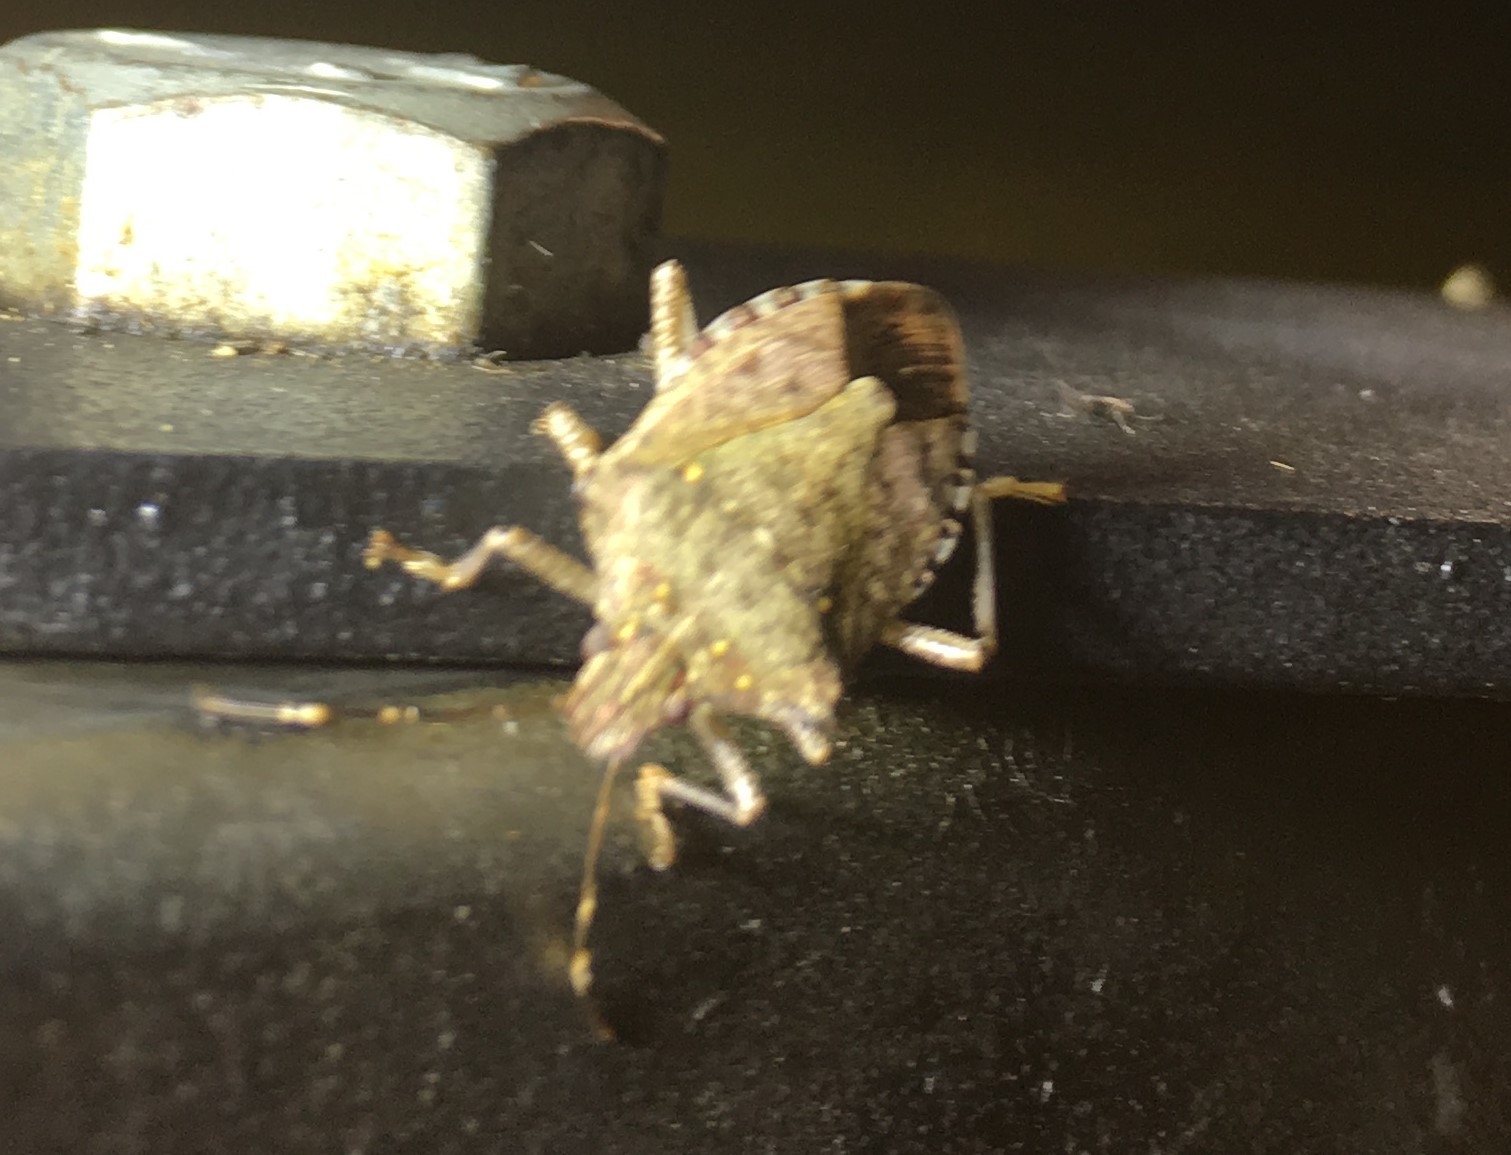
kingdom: Animalia
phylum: Arthropoda
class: Insecta
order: Hemiptera
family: Pentatomidae
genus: Halyomorpha
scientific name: Halyomorpha halys
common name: Brown marmorated stink bug
